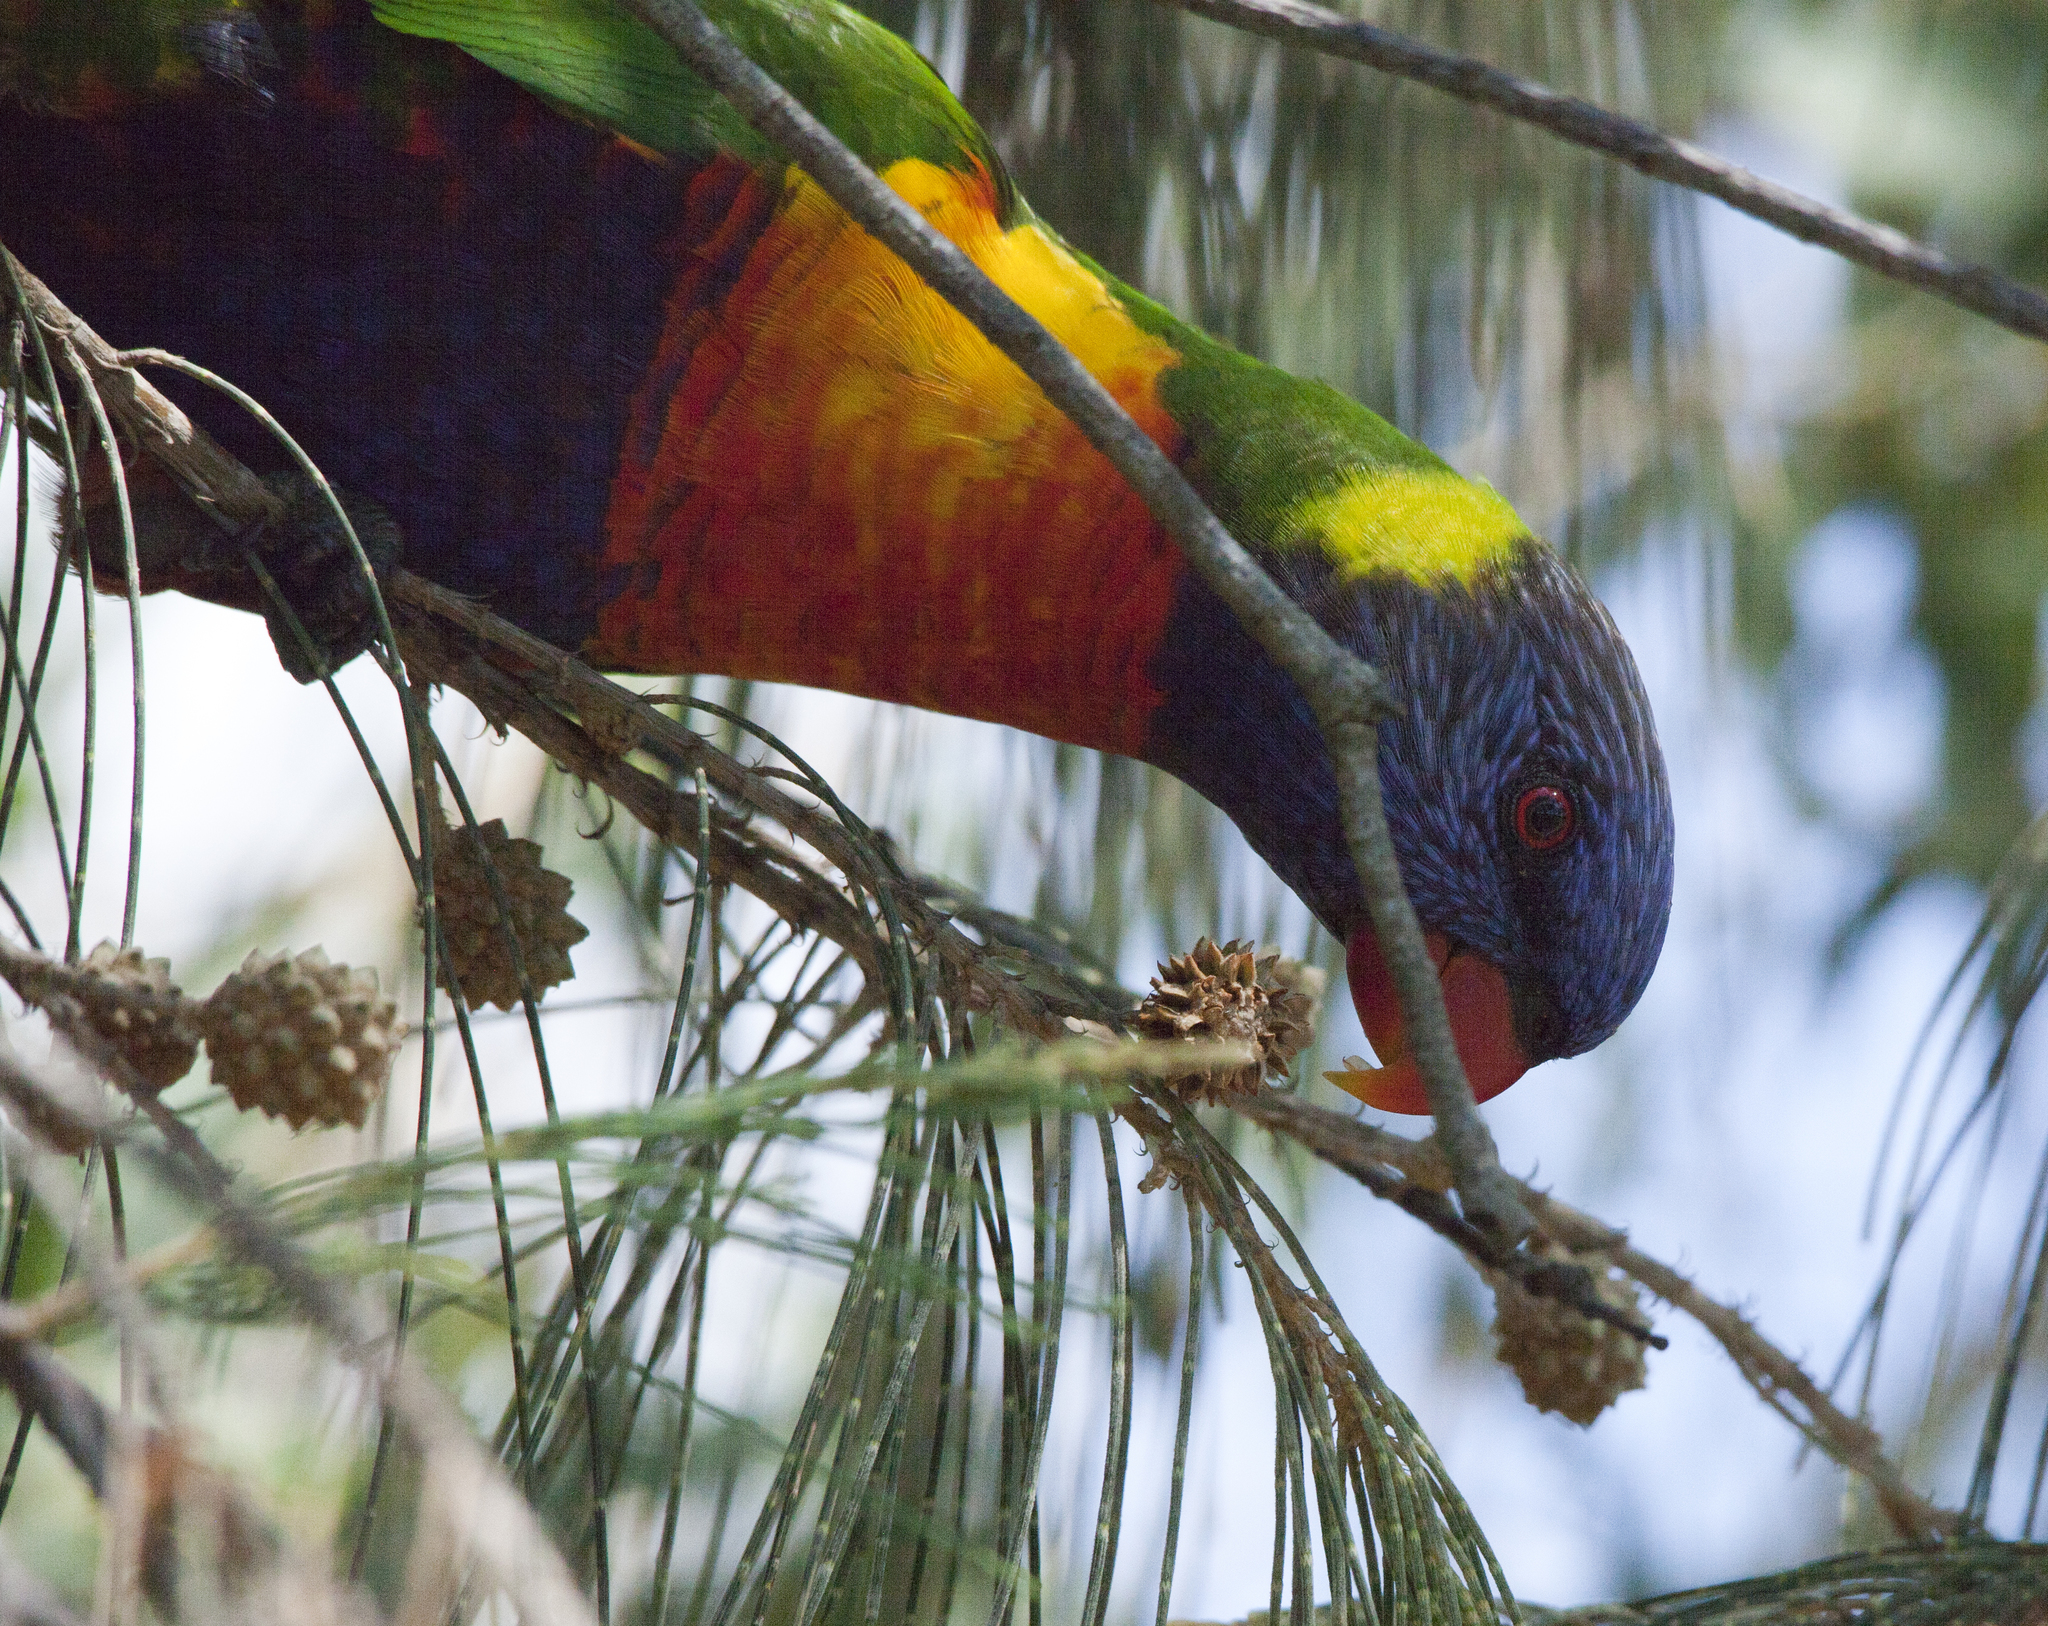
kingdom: Animalia
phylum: Chordata
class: Aves
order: Psittaciformes
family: Psittacidae
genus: Trichoglossus
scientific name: Trichoglossus haematodus
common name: Coconut lorikeet
